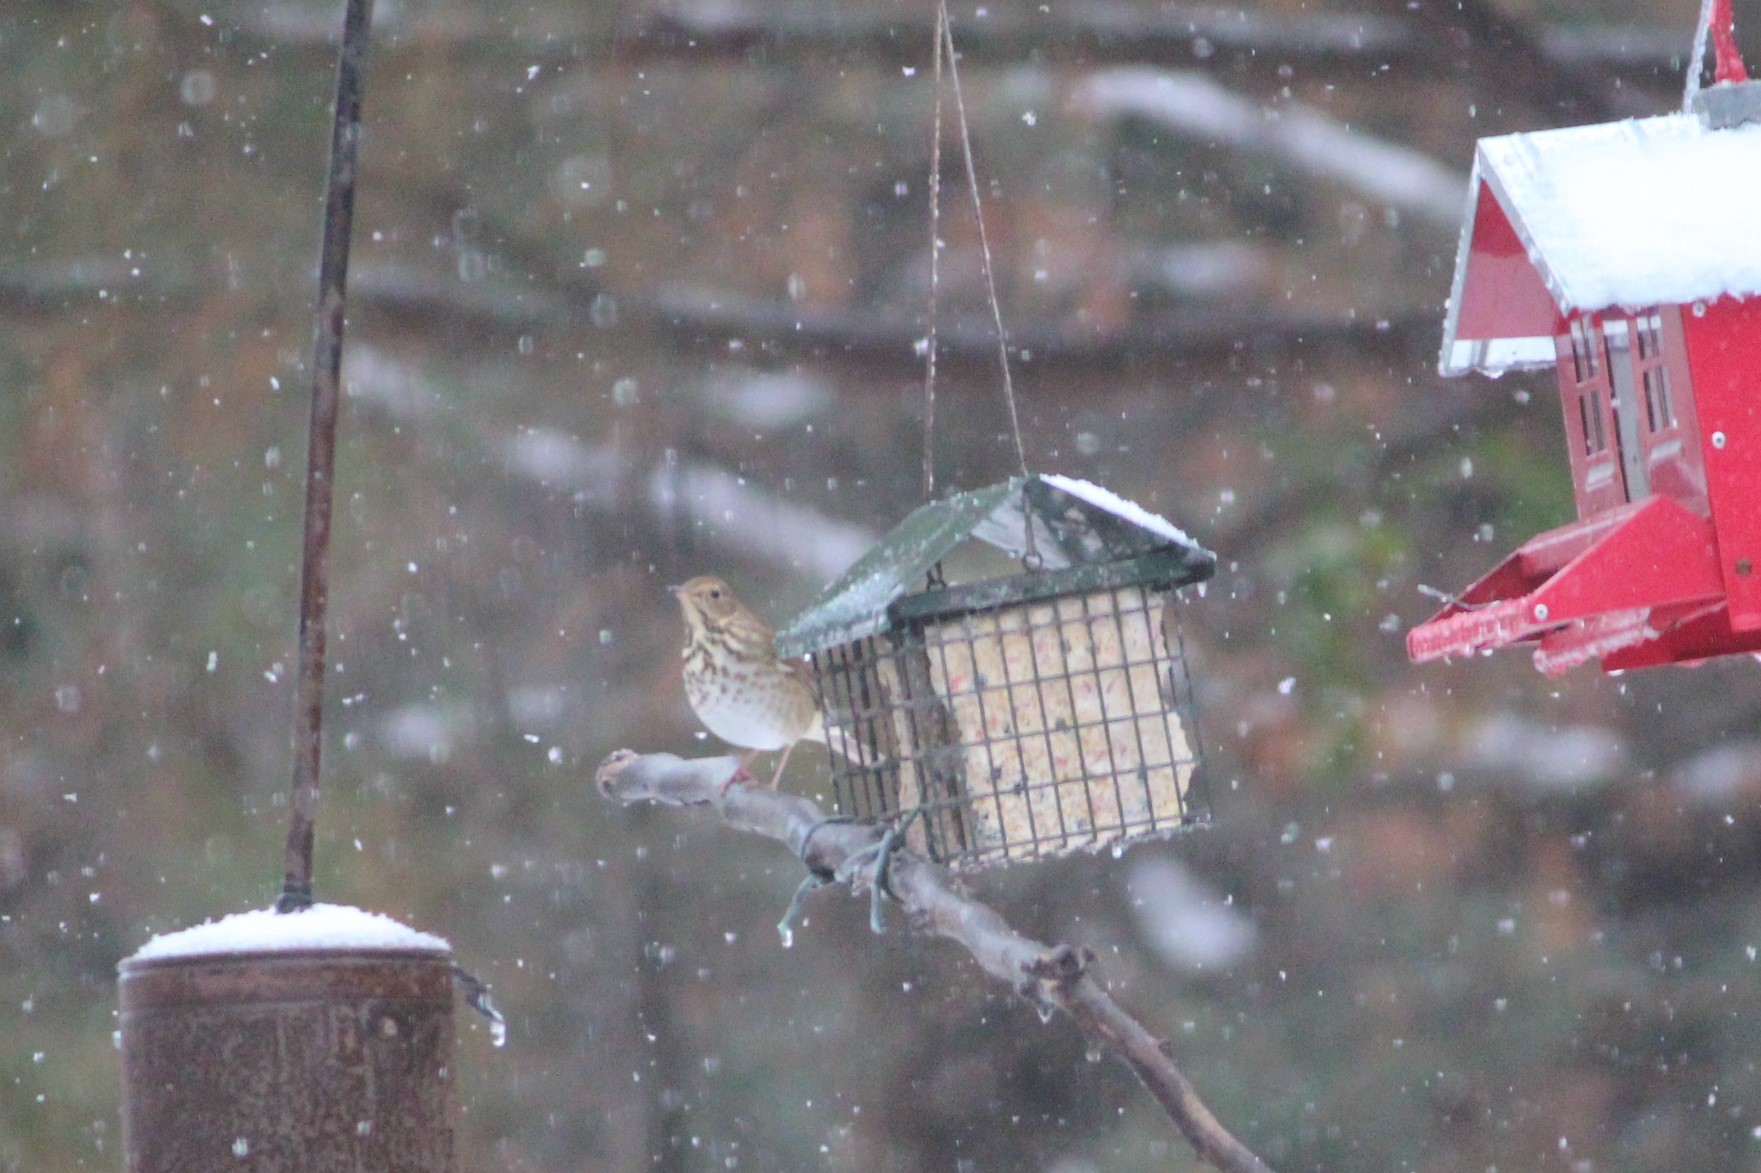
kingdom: Animalia
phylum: Chordata
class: Aves
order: Passeriformes
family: Turdidae
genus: Catharus
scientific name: Catharus guttatus
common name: Hermit thrush
